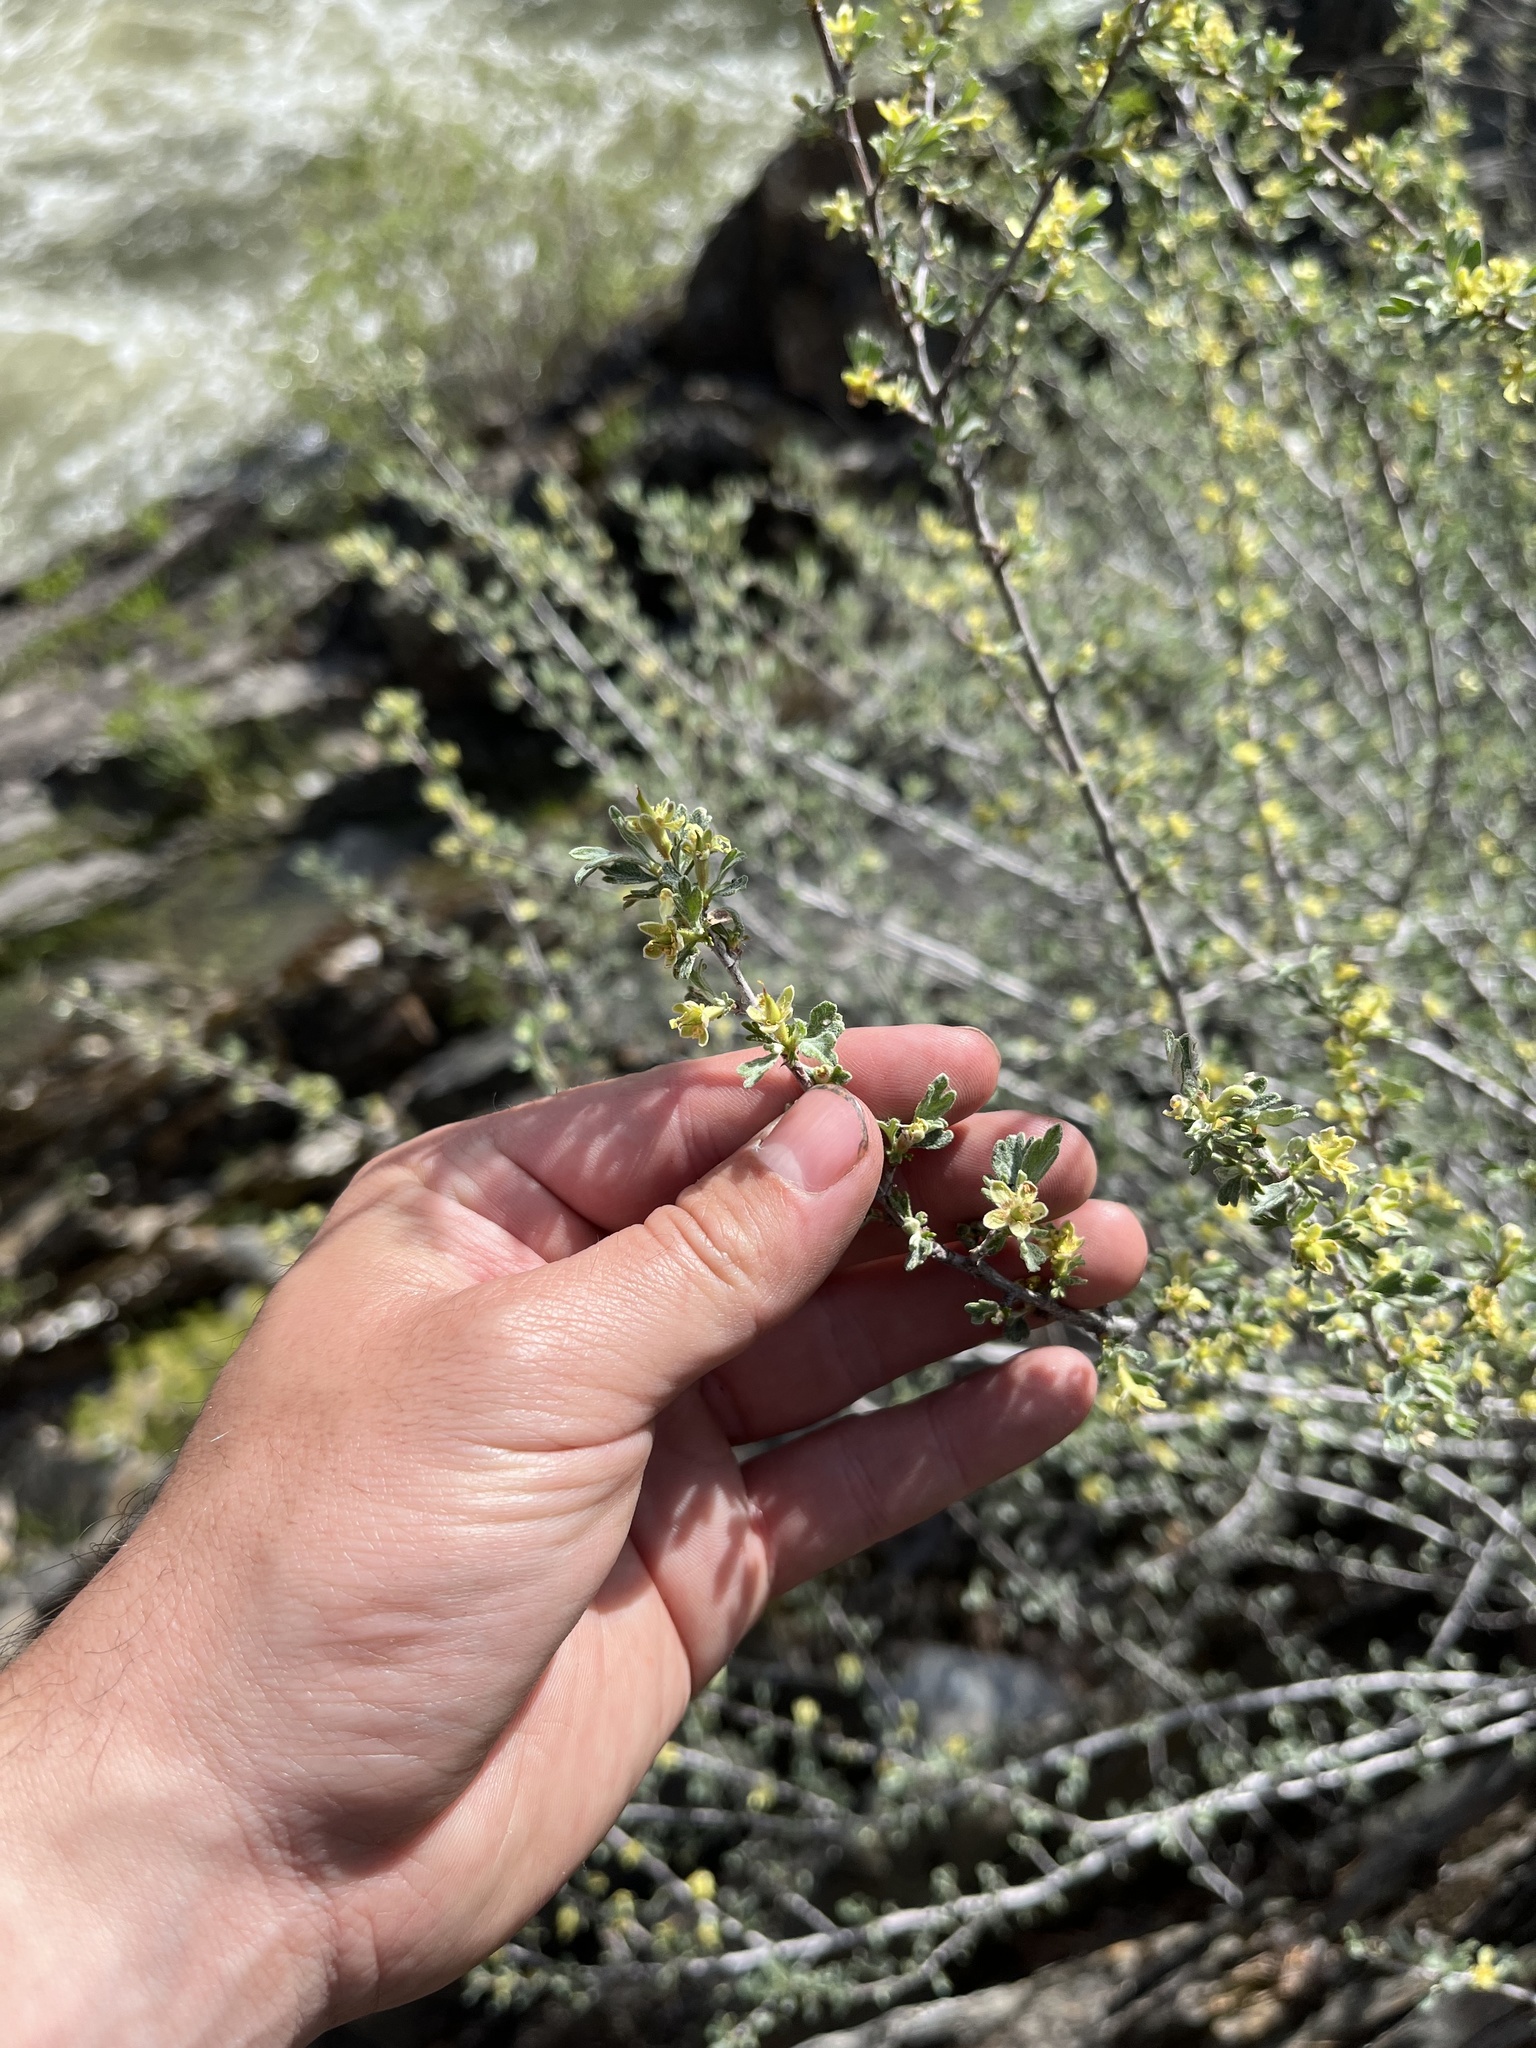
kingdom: Plantae
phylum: Tracheophyta
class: Magnoliopsida
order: Rosales
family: Rosaceae
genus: Purshia
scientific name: Purshia tridentata
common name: Antelope bitterbrush
